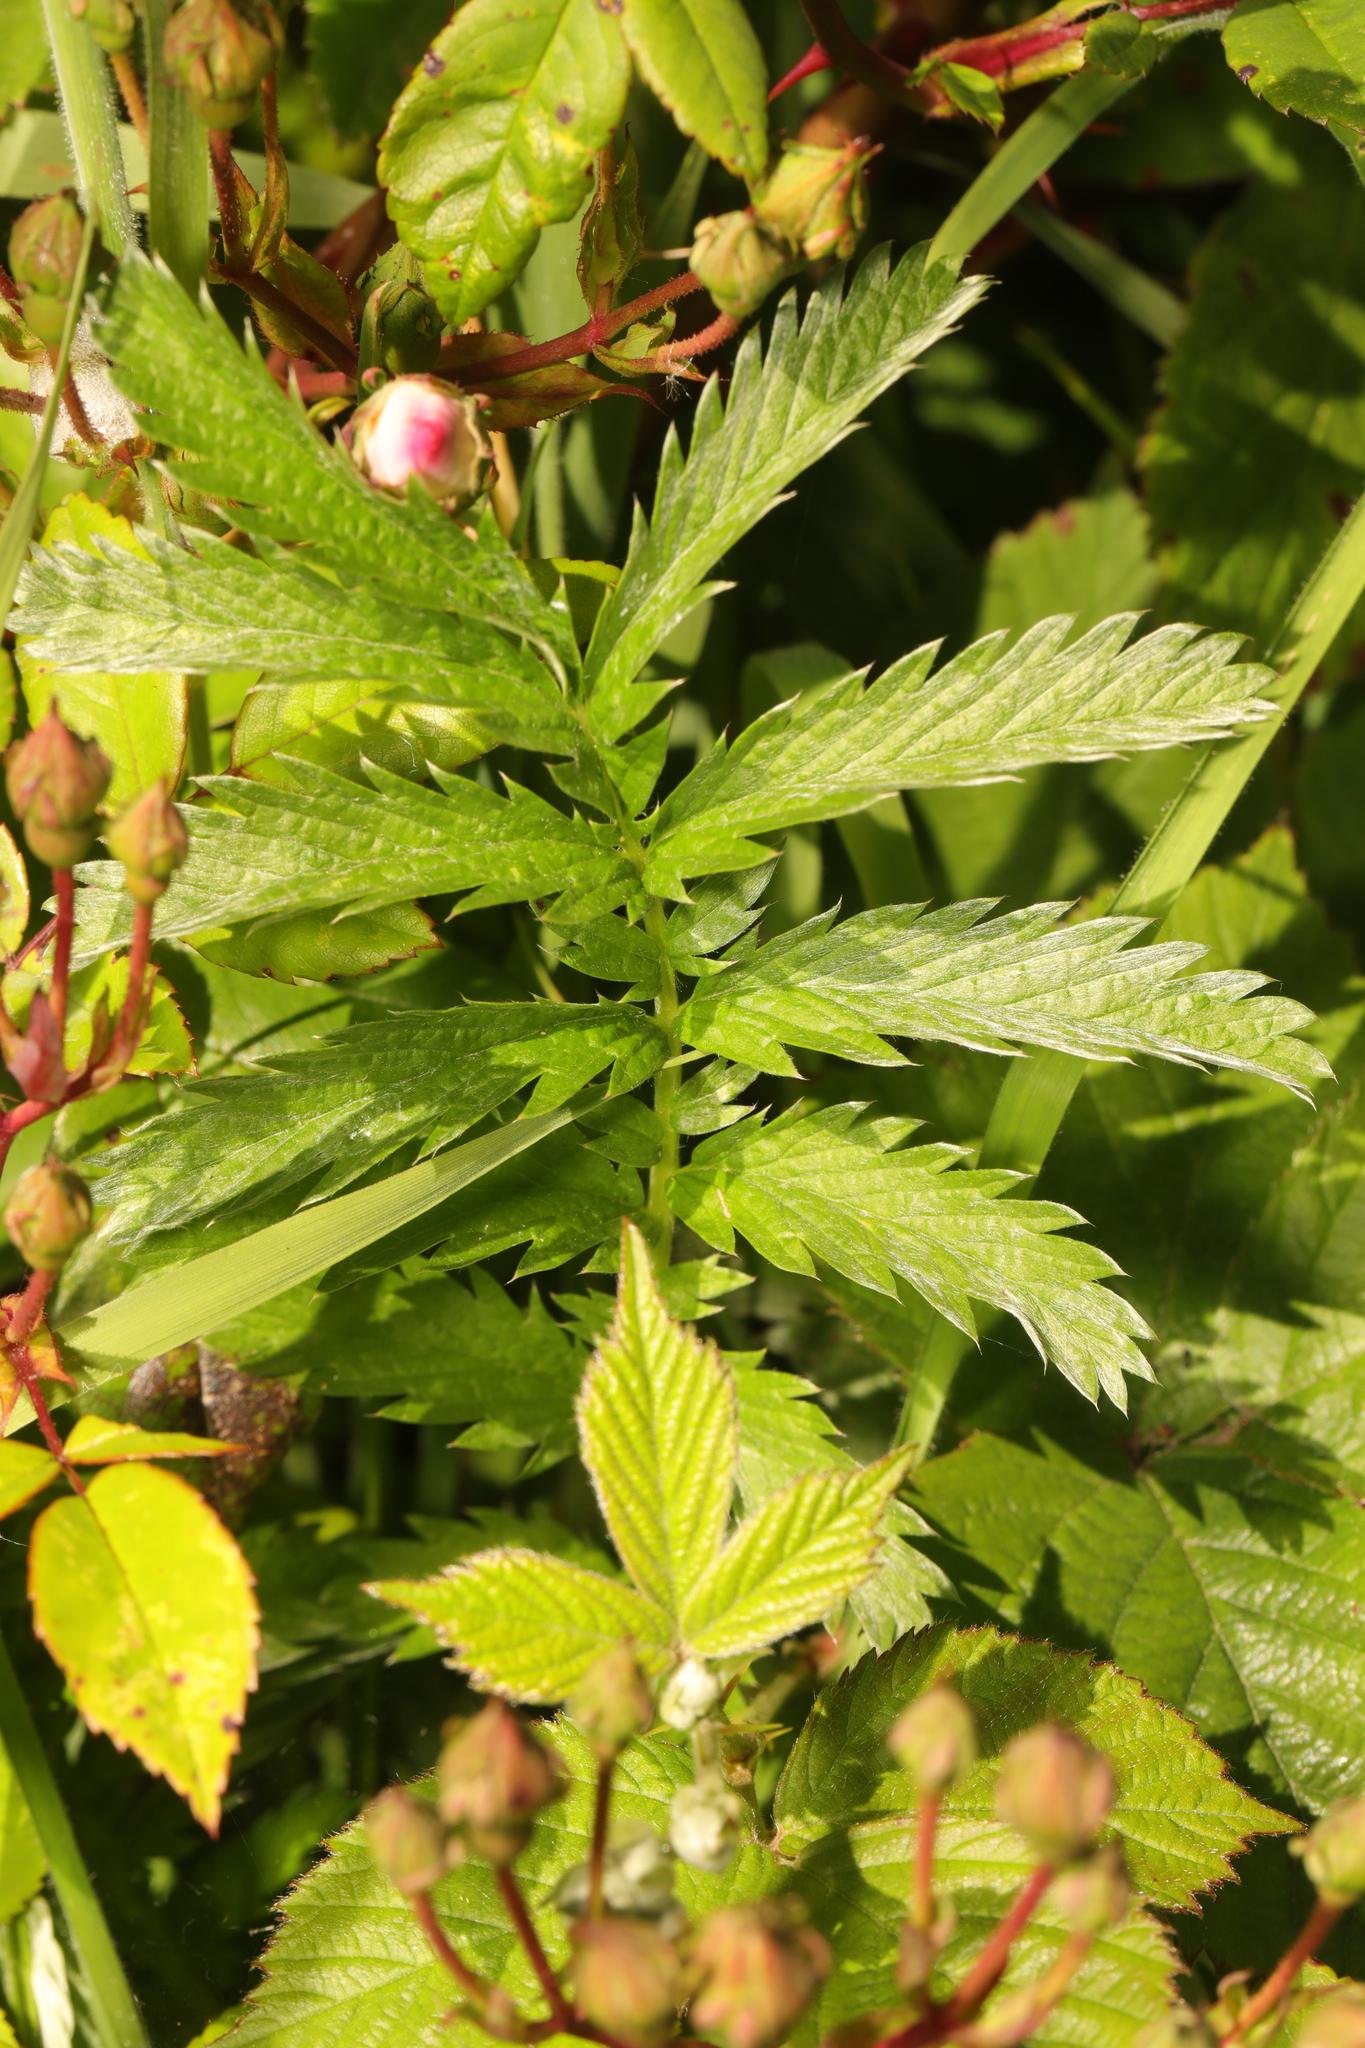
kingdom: Plantae
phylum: Tracheophyta
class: Magnoliopsida
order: Rosales
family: Rosaceae
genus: Argentina
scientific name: Argentina anserina
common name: Common silverweed
